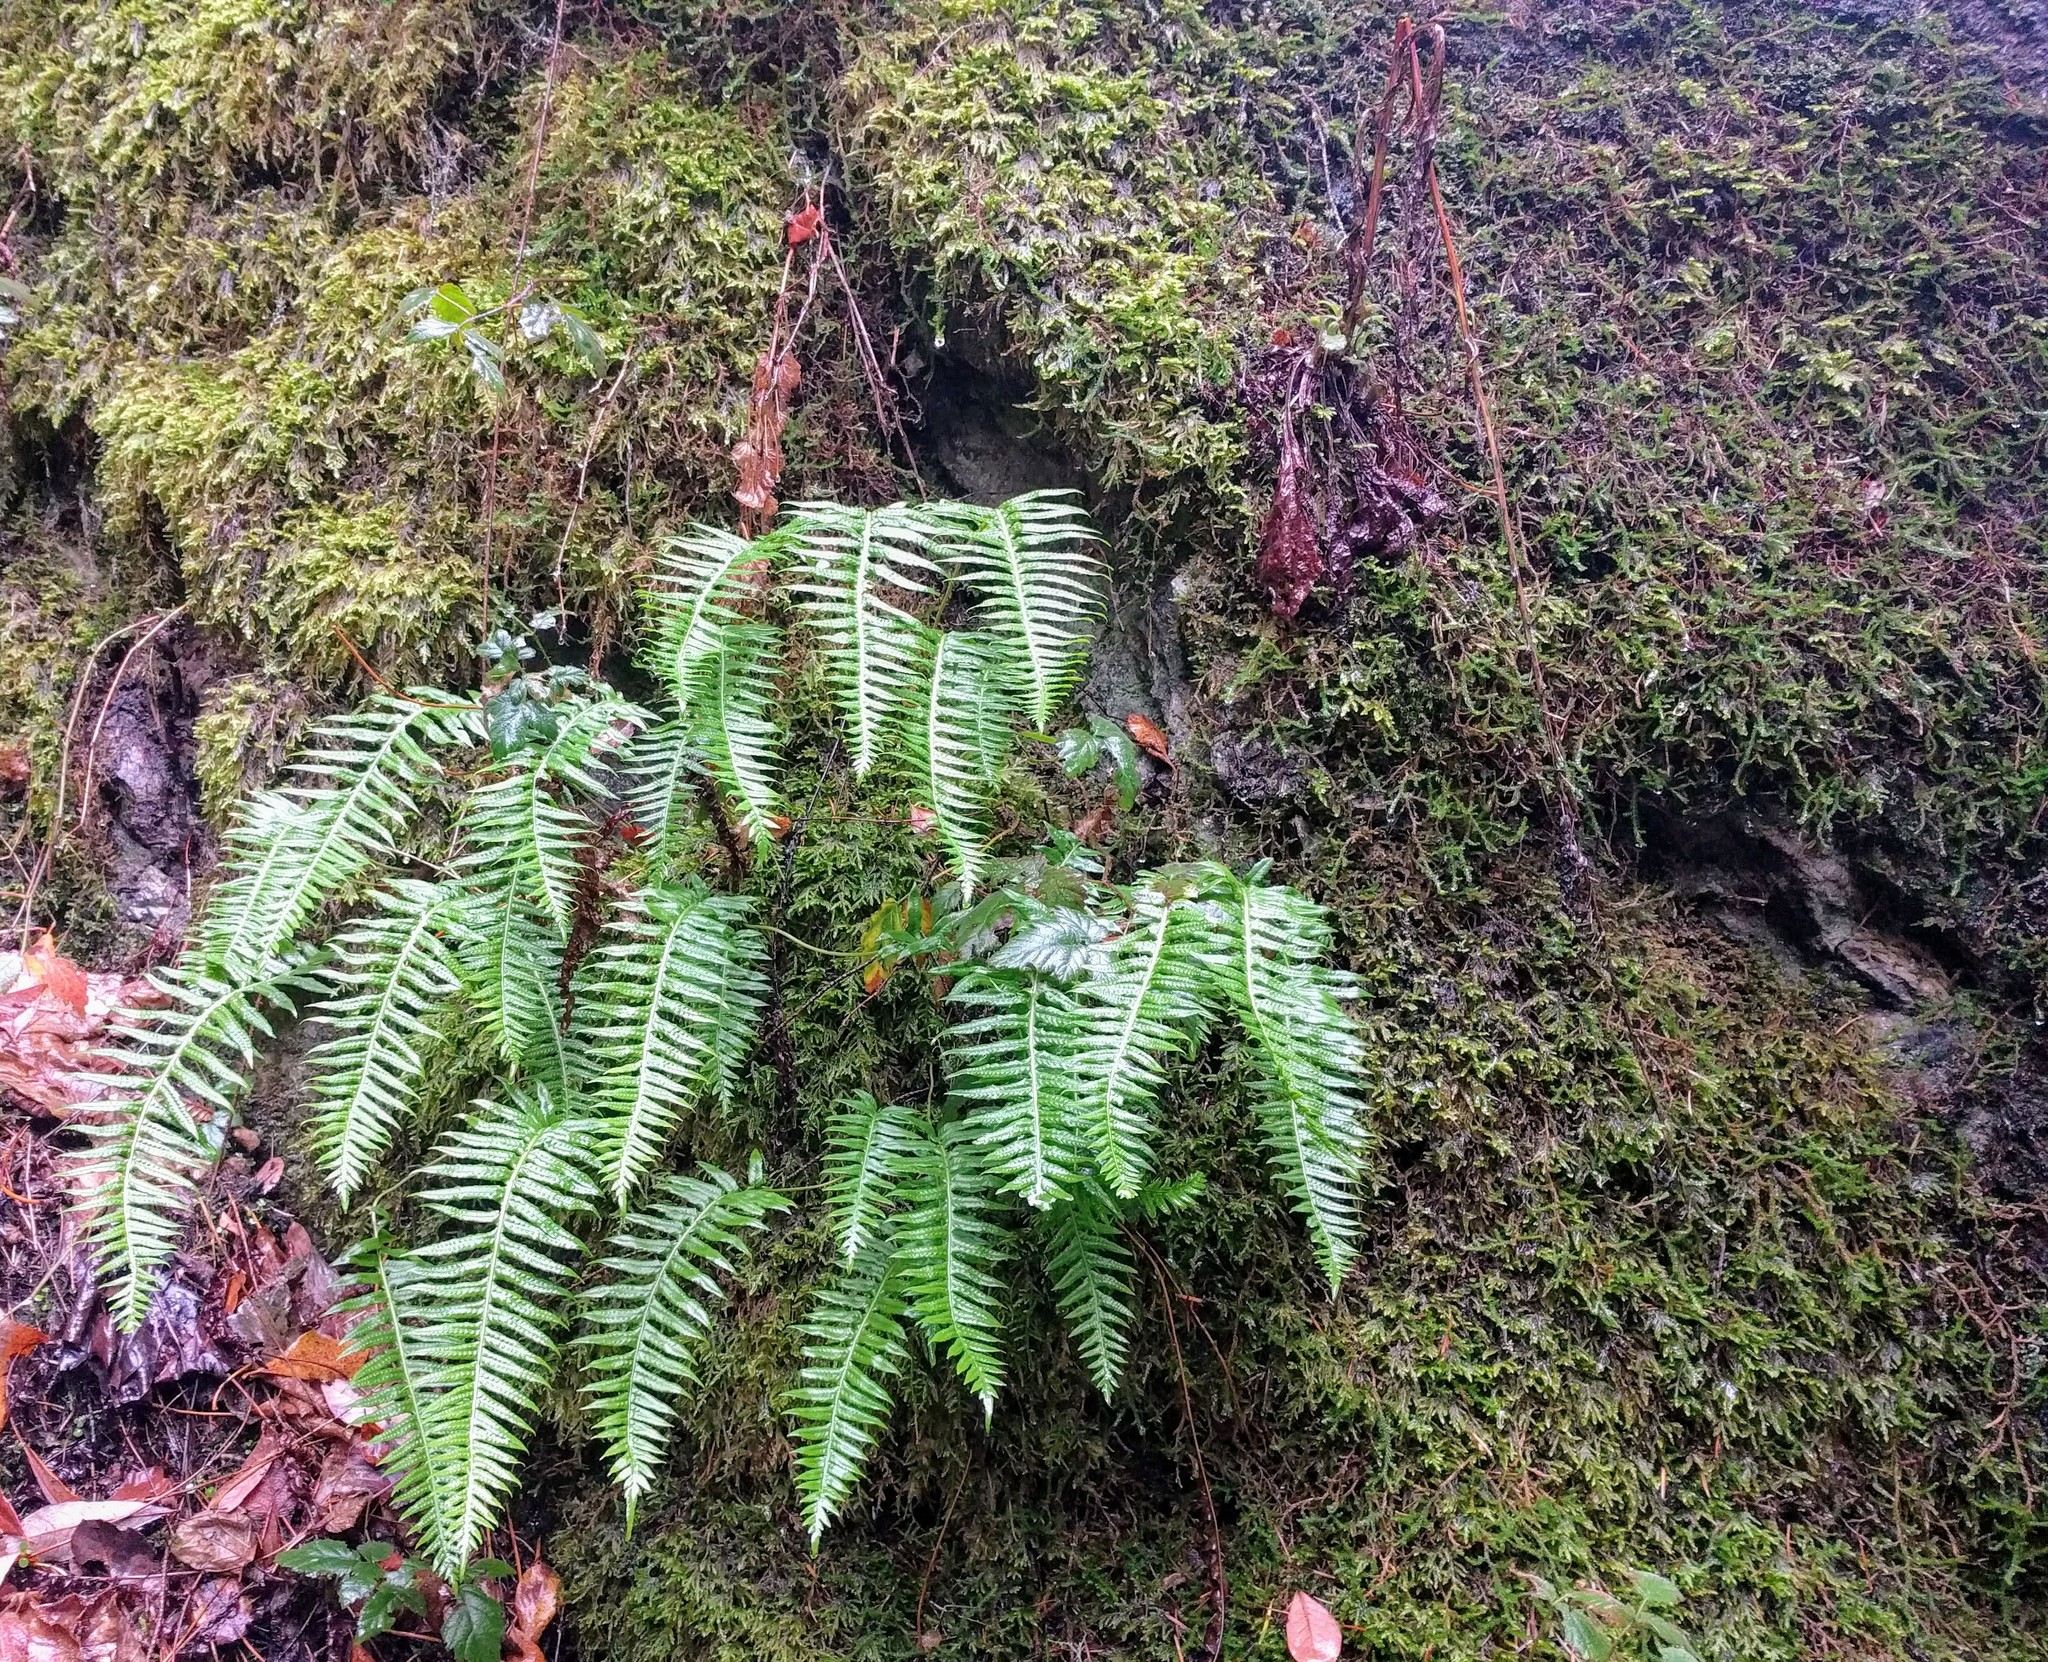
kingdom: Plantae
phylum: Tracheophyta
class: Polypodiopsida
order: Polypodiales
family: Polypodiaceae
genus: Polypodium
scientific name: Polypodium glycyrrhiza
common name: Licorice fern
